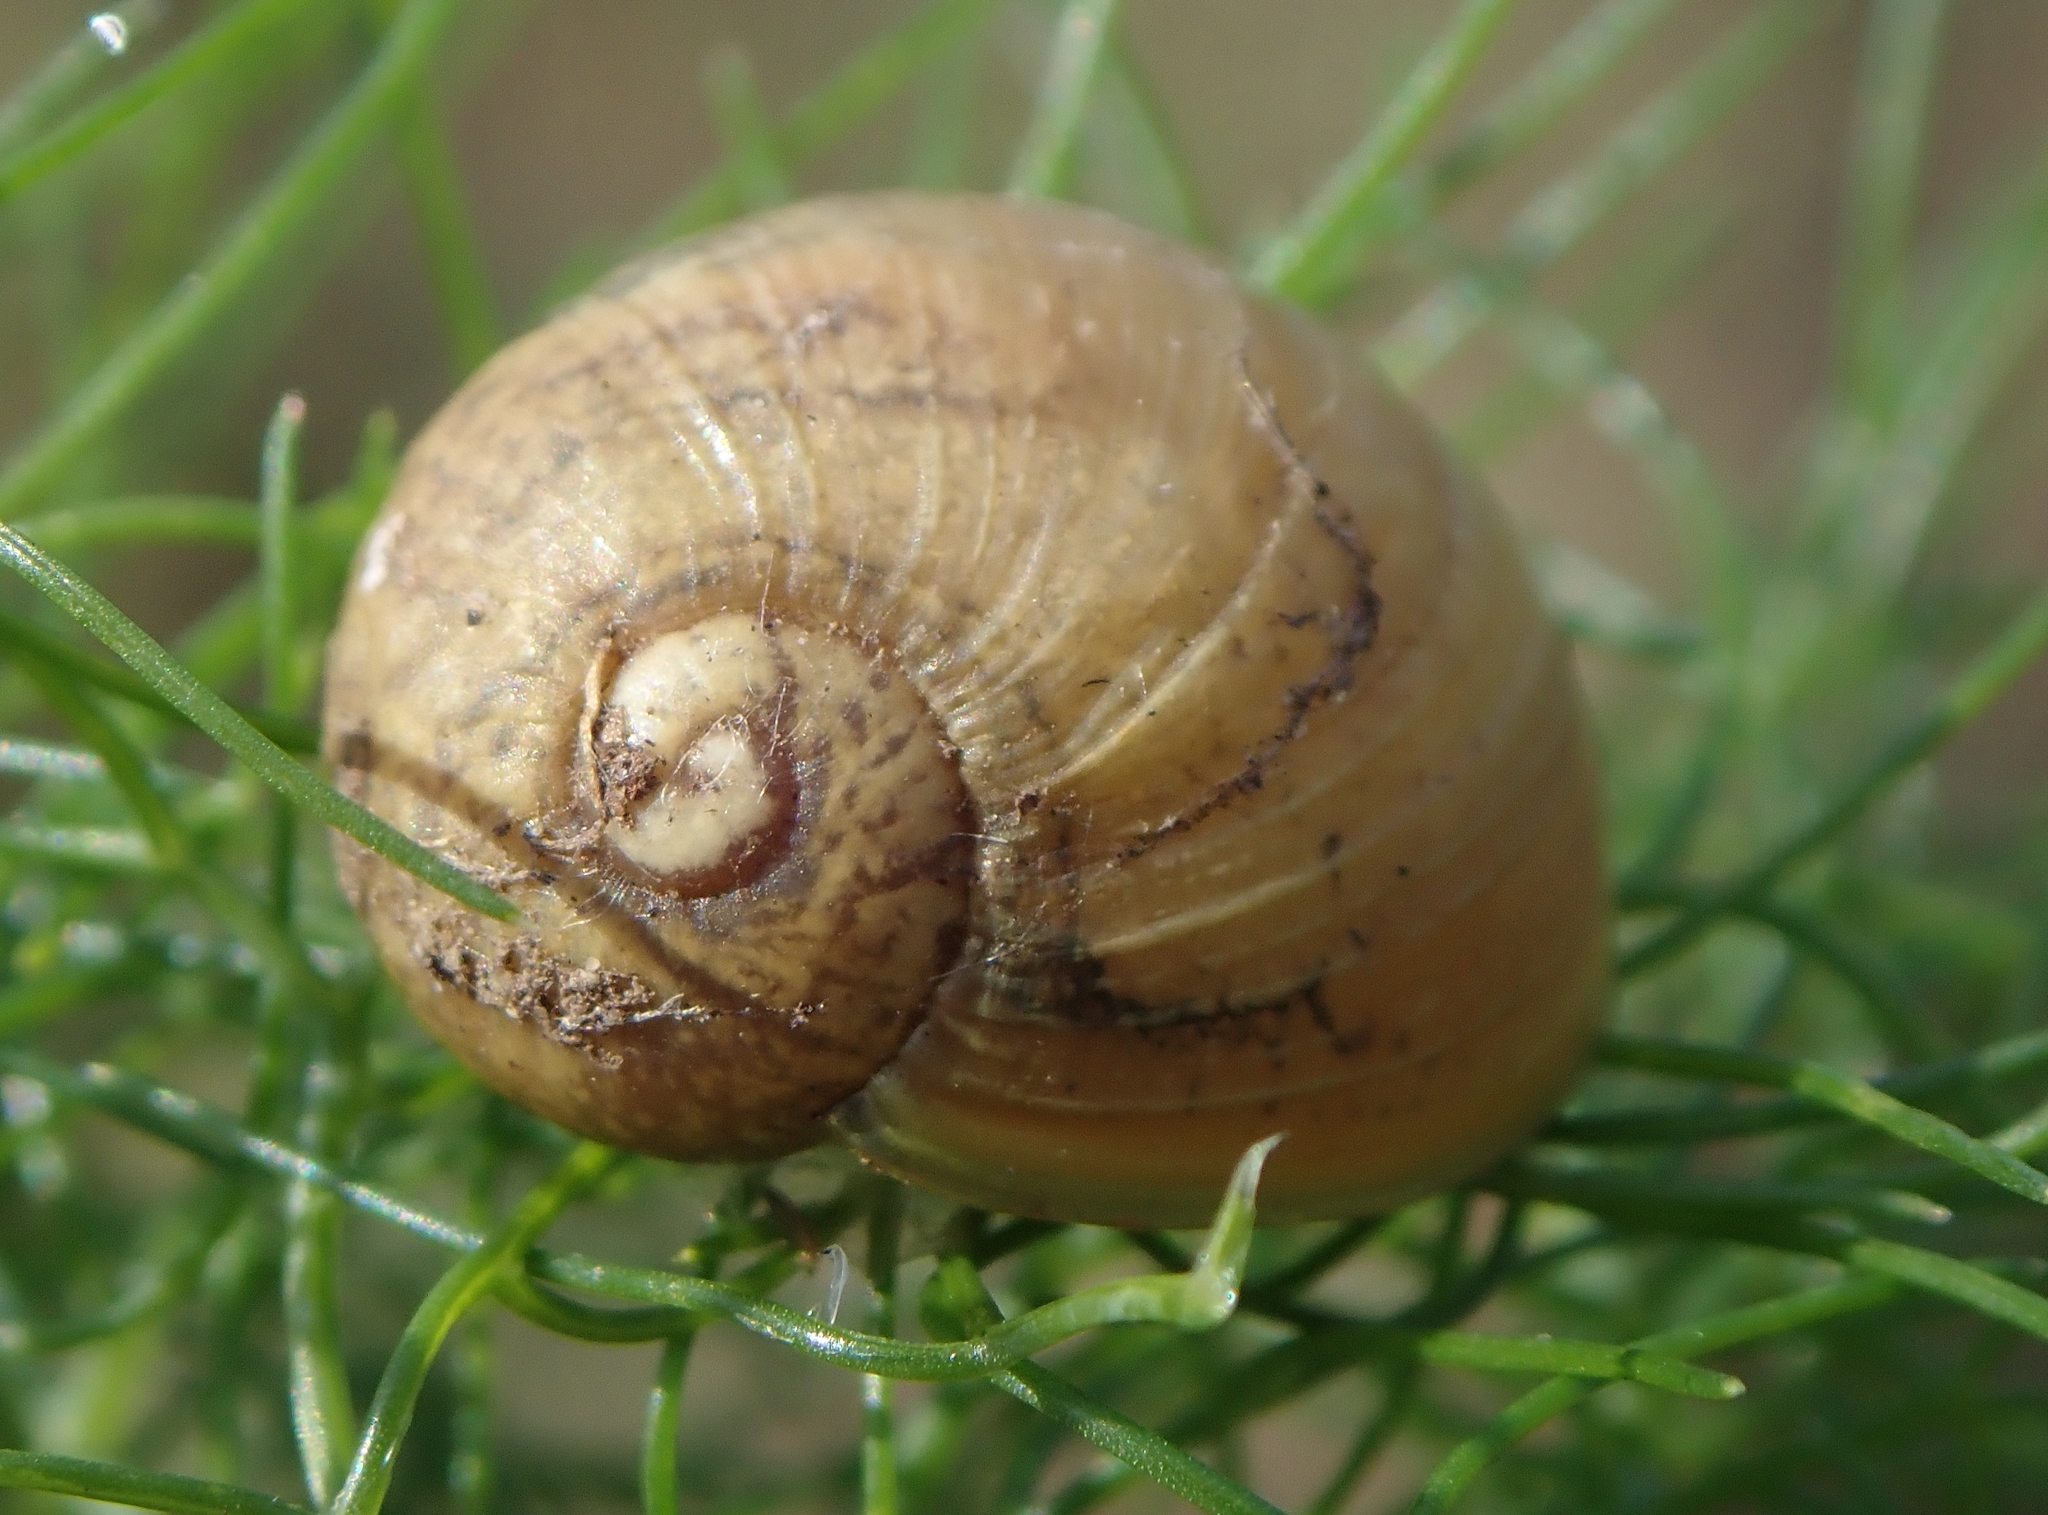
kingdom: Animalia
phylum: Mollusca
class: Gastropoda
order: Stylommatophora
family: Helicidae
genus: Cantareus
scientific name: Cantareus apertus
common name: Green gardensnail
